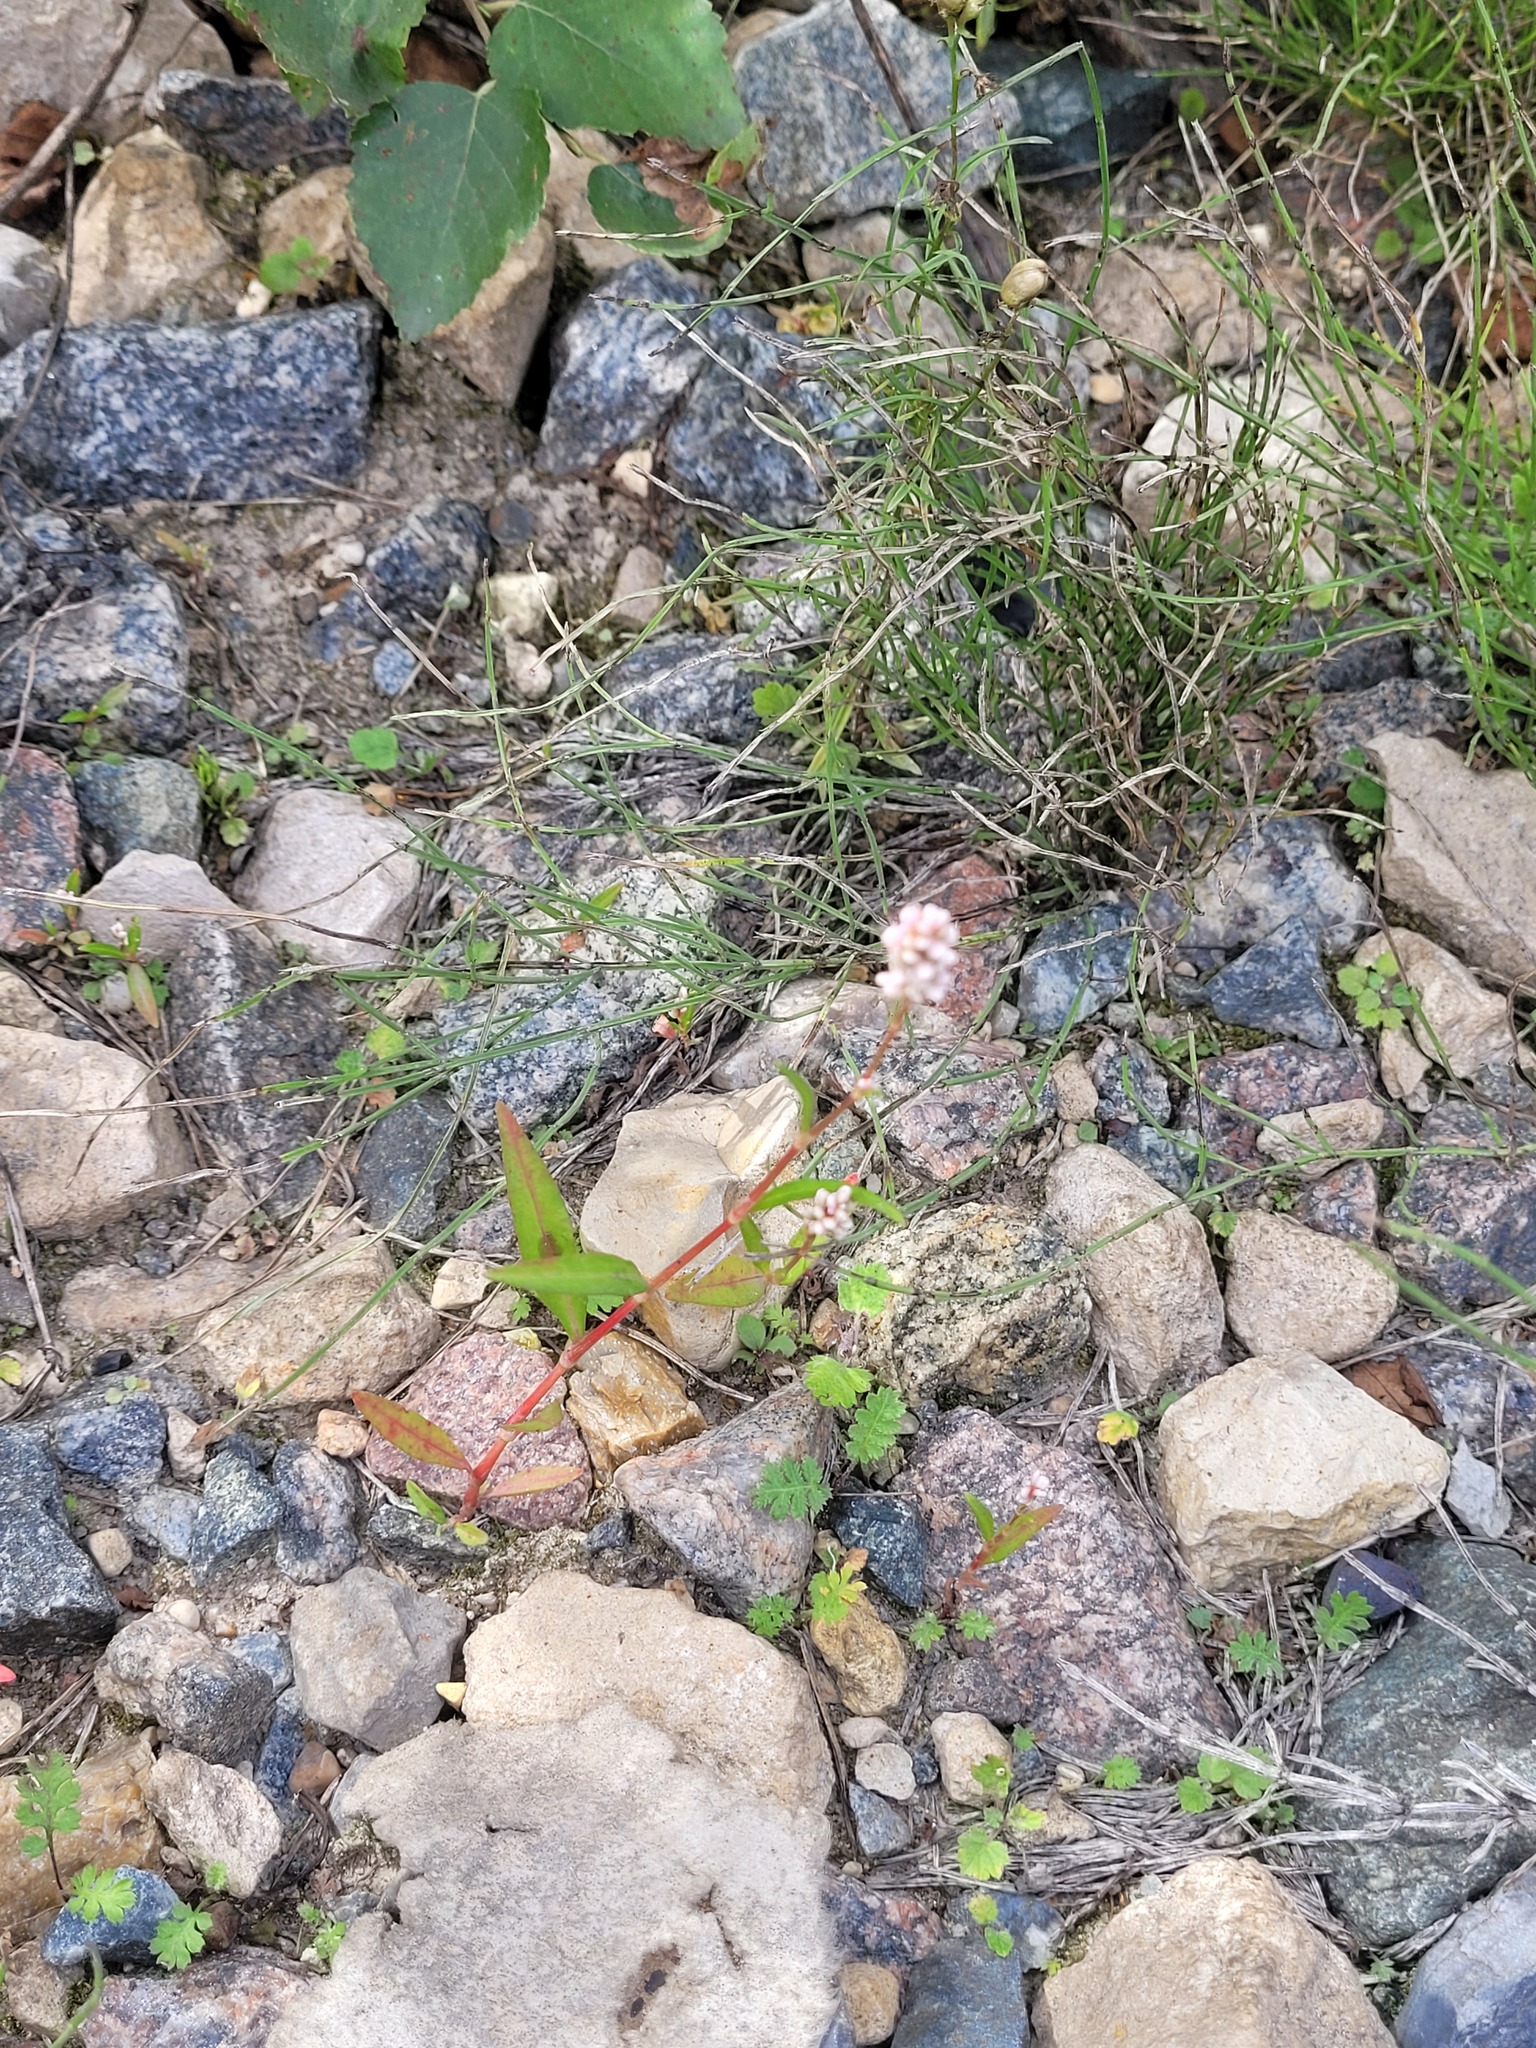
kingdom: Plantae
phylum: Tracheophyta
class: Magnoliopsida
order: Caryophyllales
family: Polygonaceae
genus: Persicaria
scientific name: Persicaria maculosa
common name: Redshank
